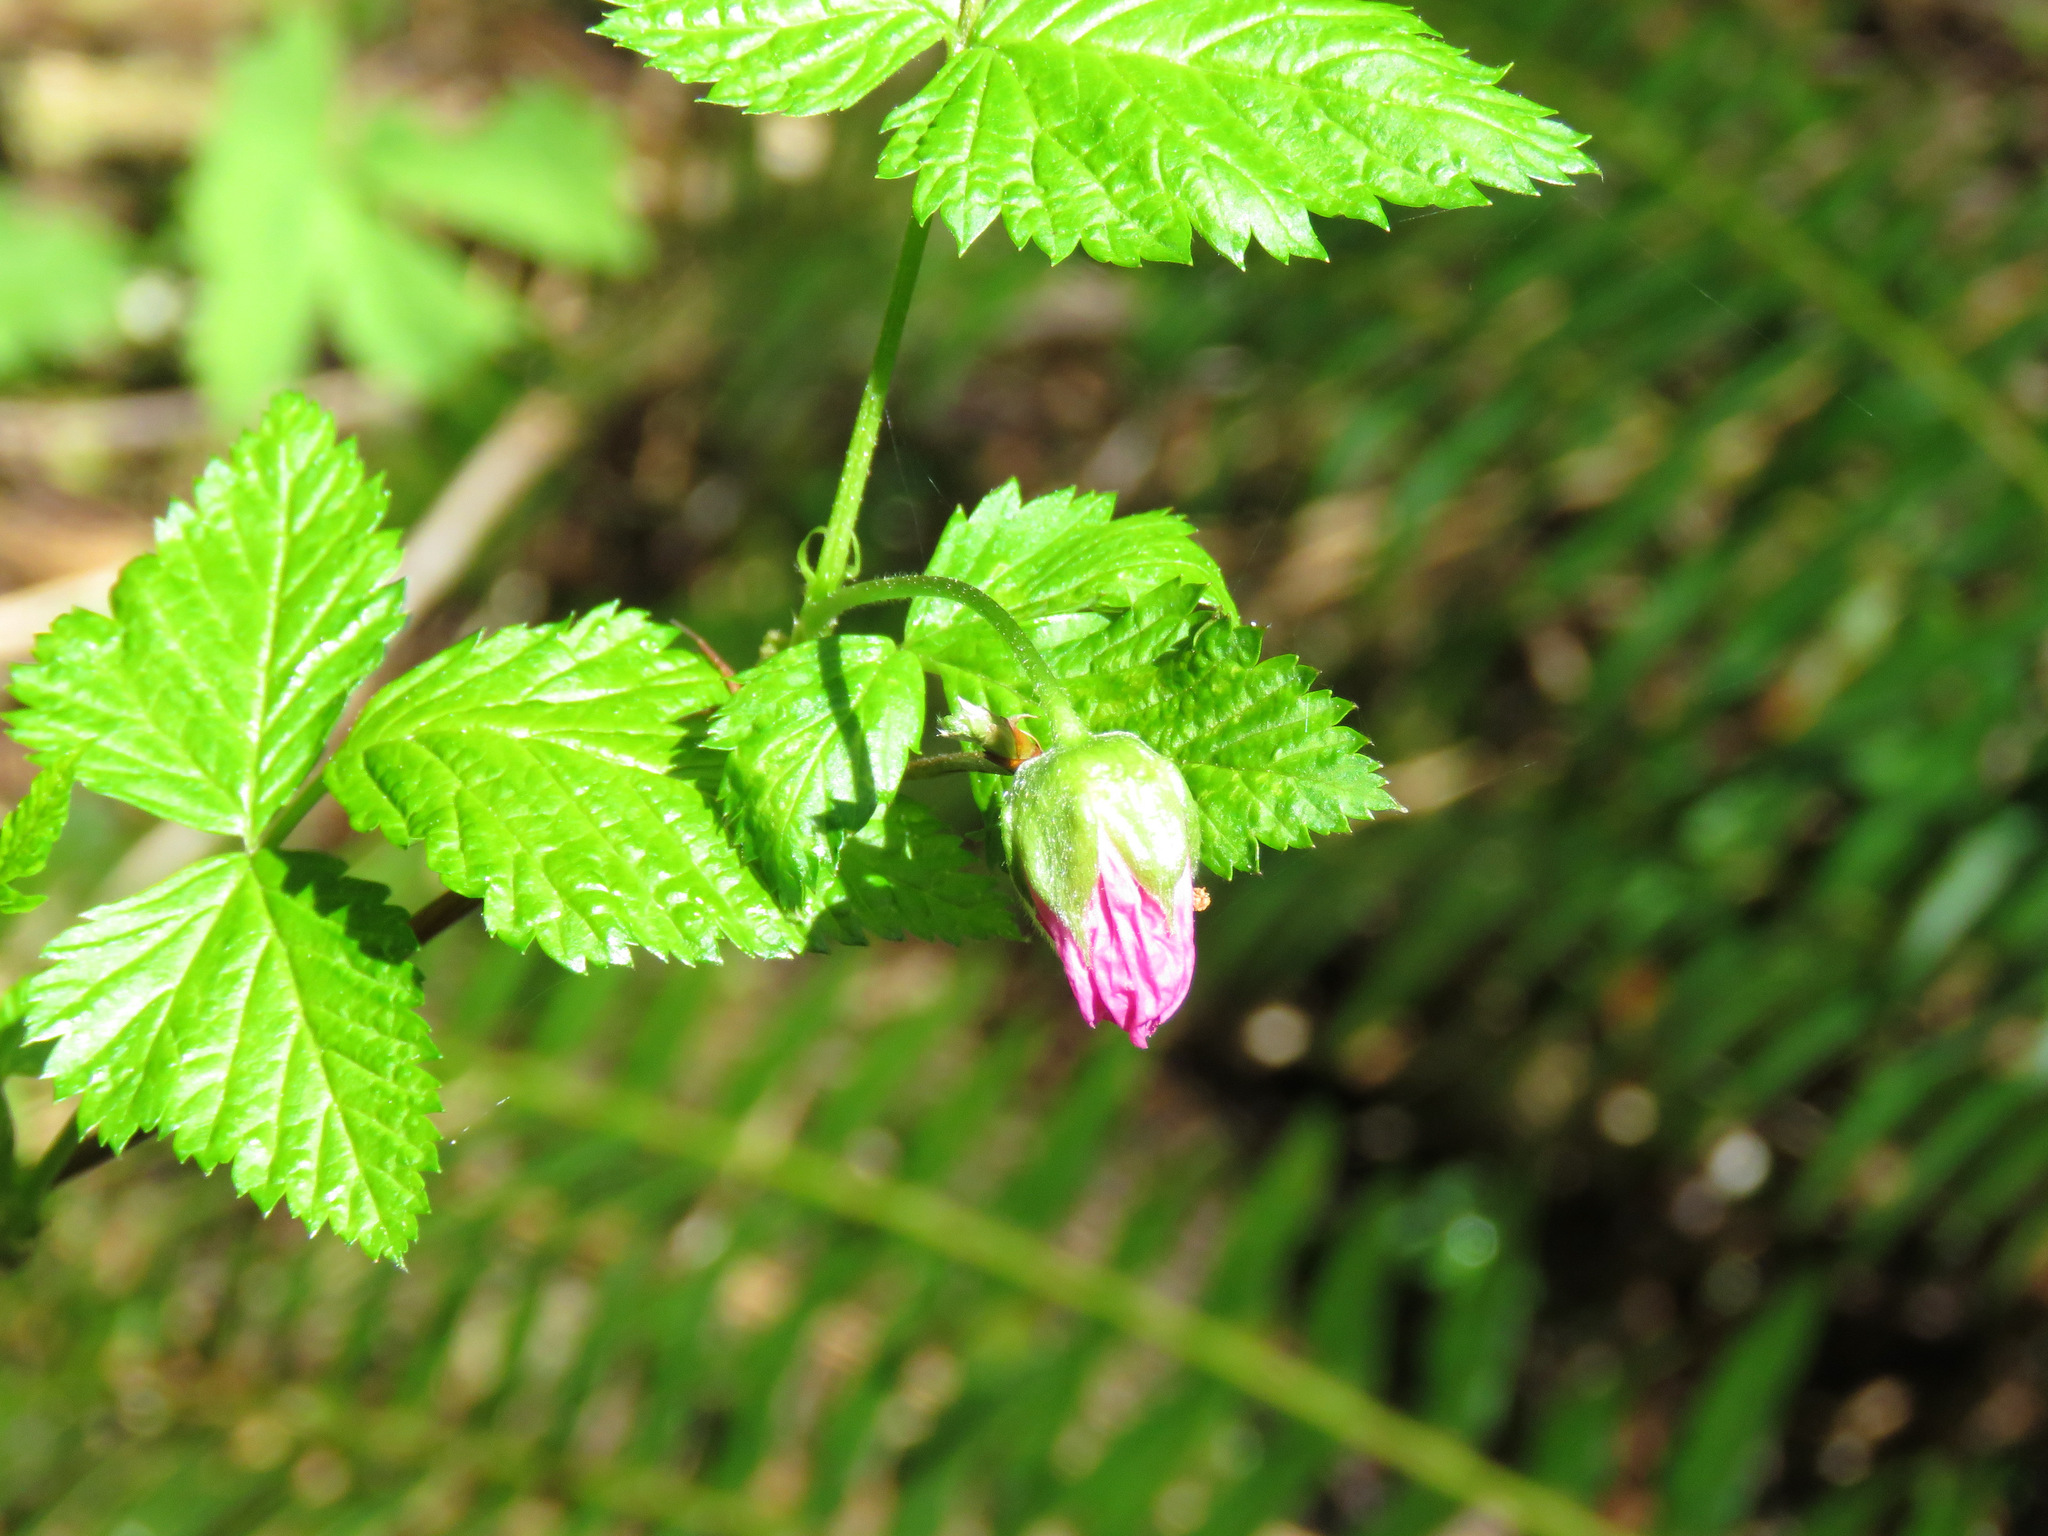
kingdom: Plantae
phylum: Tracheophyta
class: Magnoliopsida
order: Rosales
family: Rosaceae
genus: Rubus
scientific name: Rubus spectabilis
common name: Salmonberry
